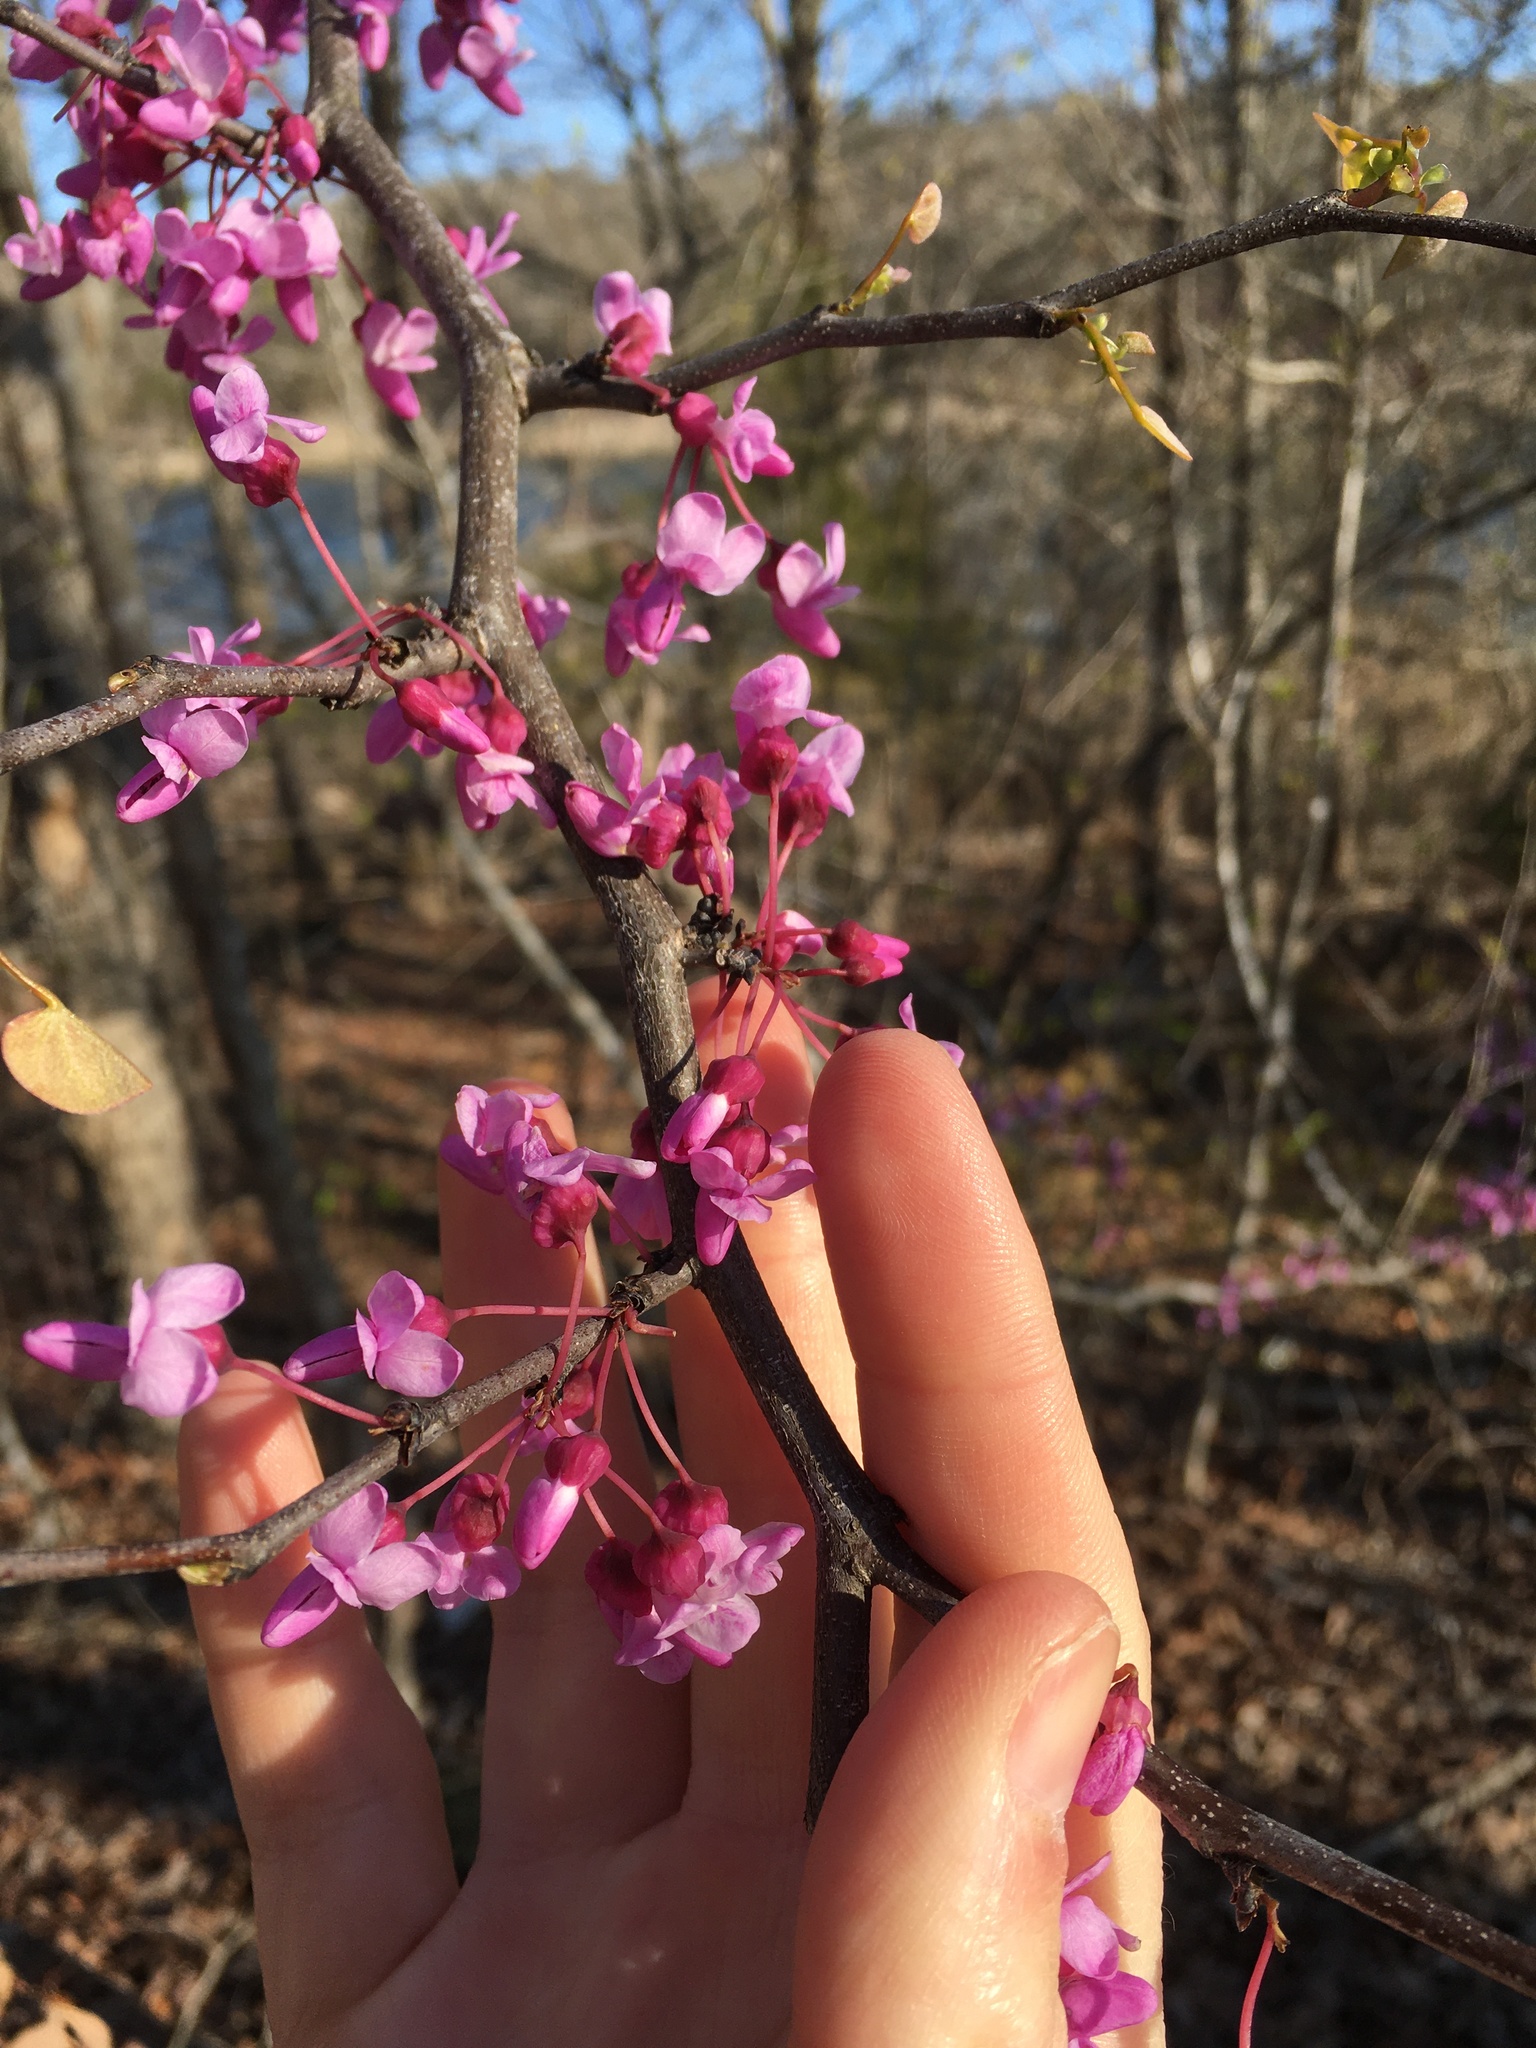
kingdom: Plantae
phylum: Tracheophyta
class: Magnoliopsida
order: Fabales
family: Fabaceae
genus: Cercis
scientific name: Cercis canadensis
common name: Eastern redbud
